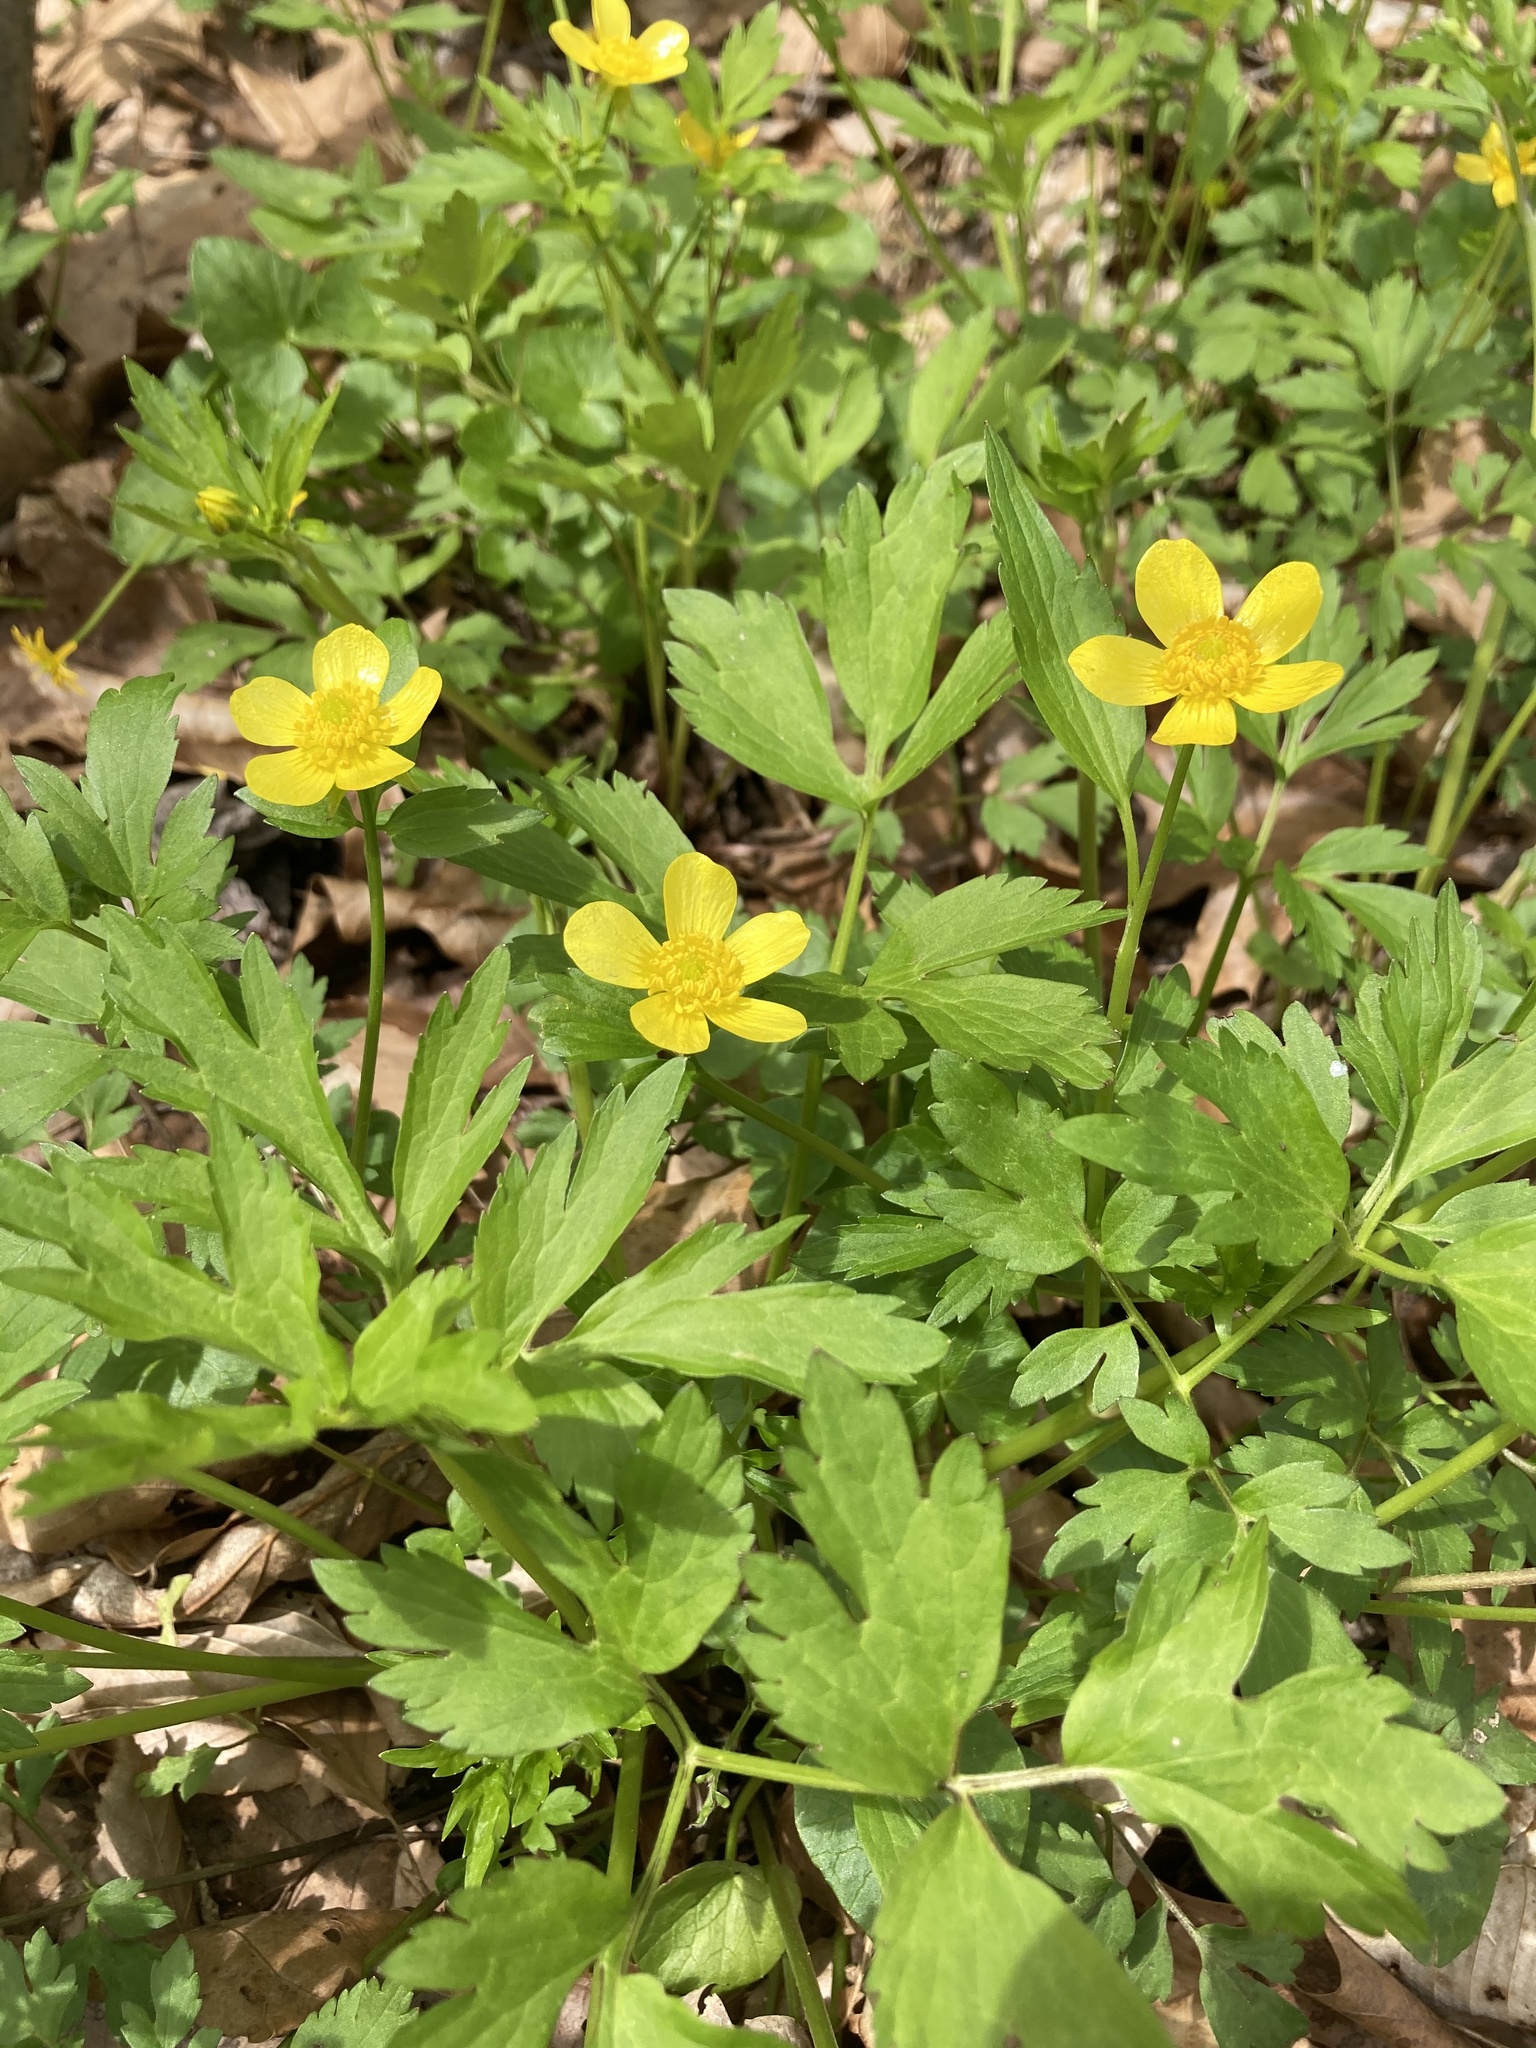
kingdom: Plantae
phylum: Tracheophyta
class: Magnoliopsida
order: Ranunculales
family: Ranunculaceae
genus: Ranunculus
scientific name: Ranunculus hispidus
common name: Bristly buttercup
